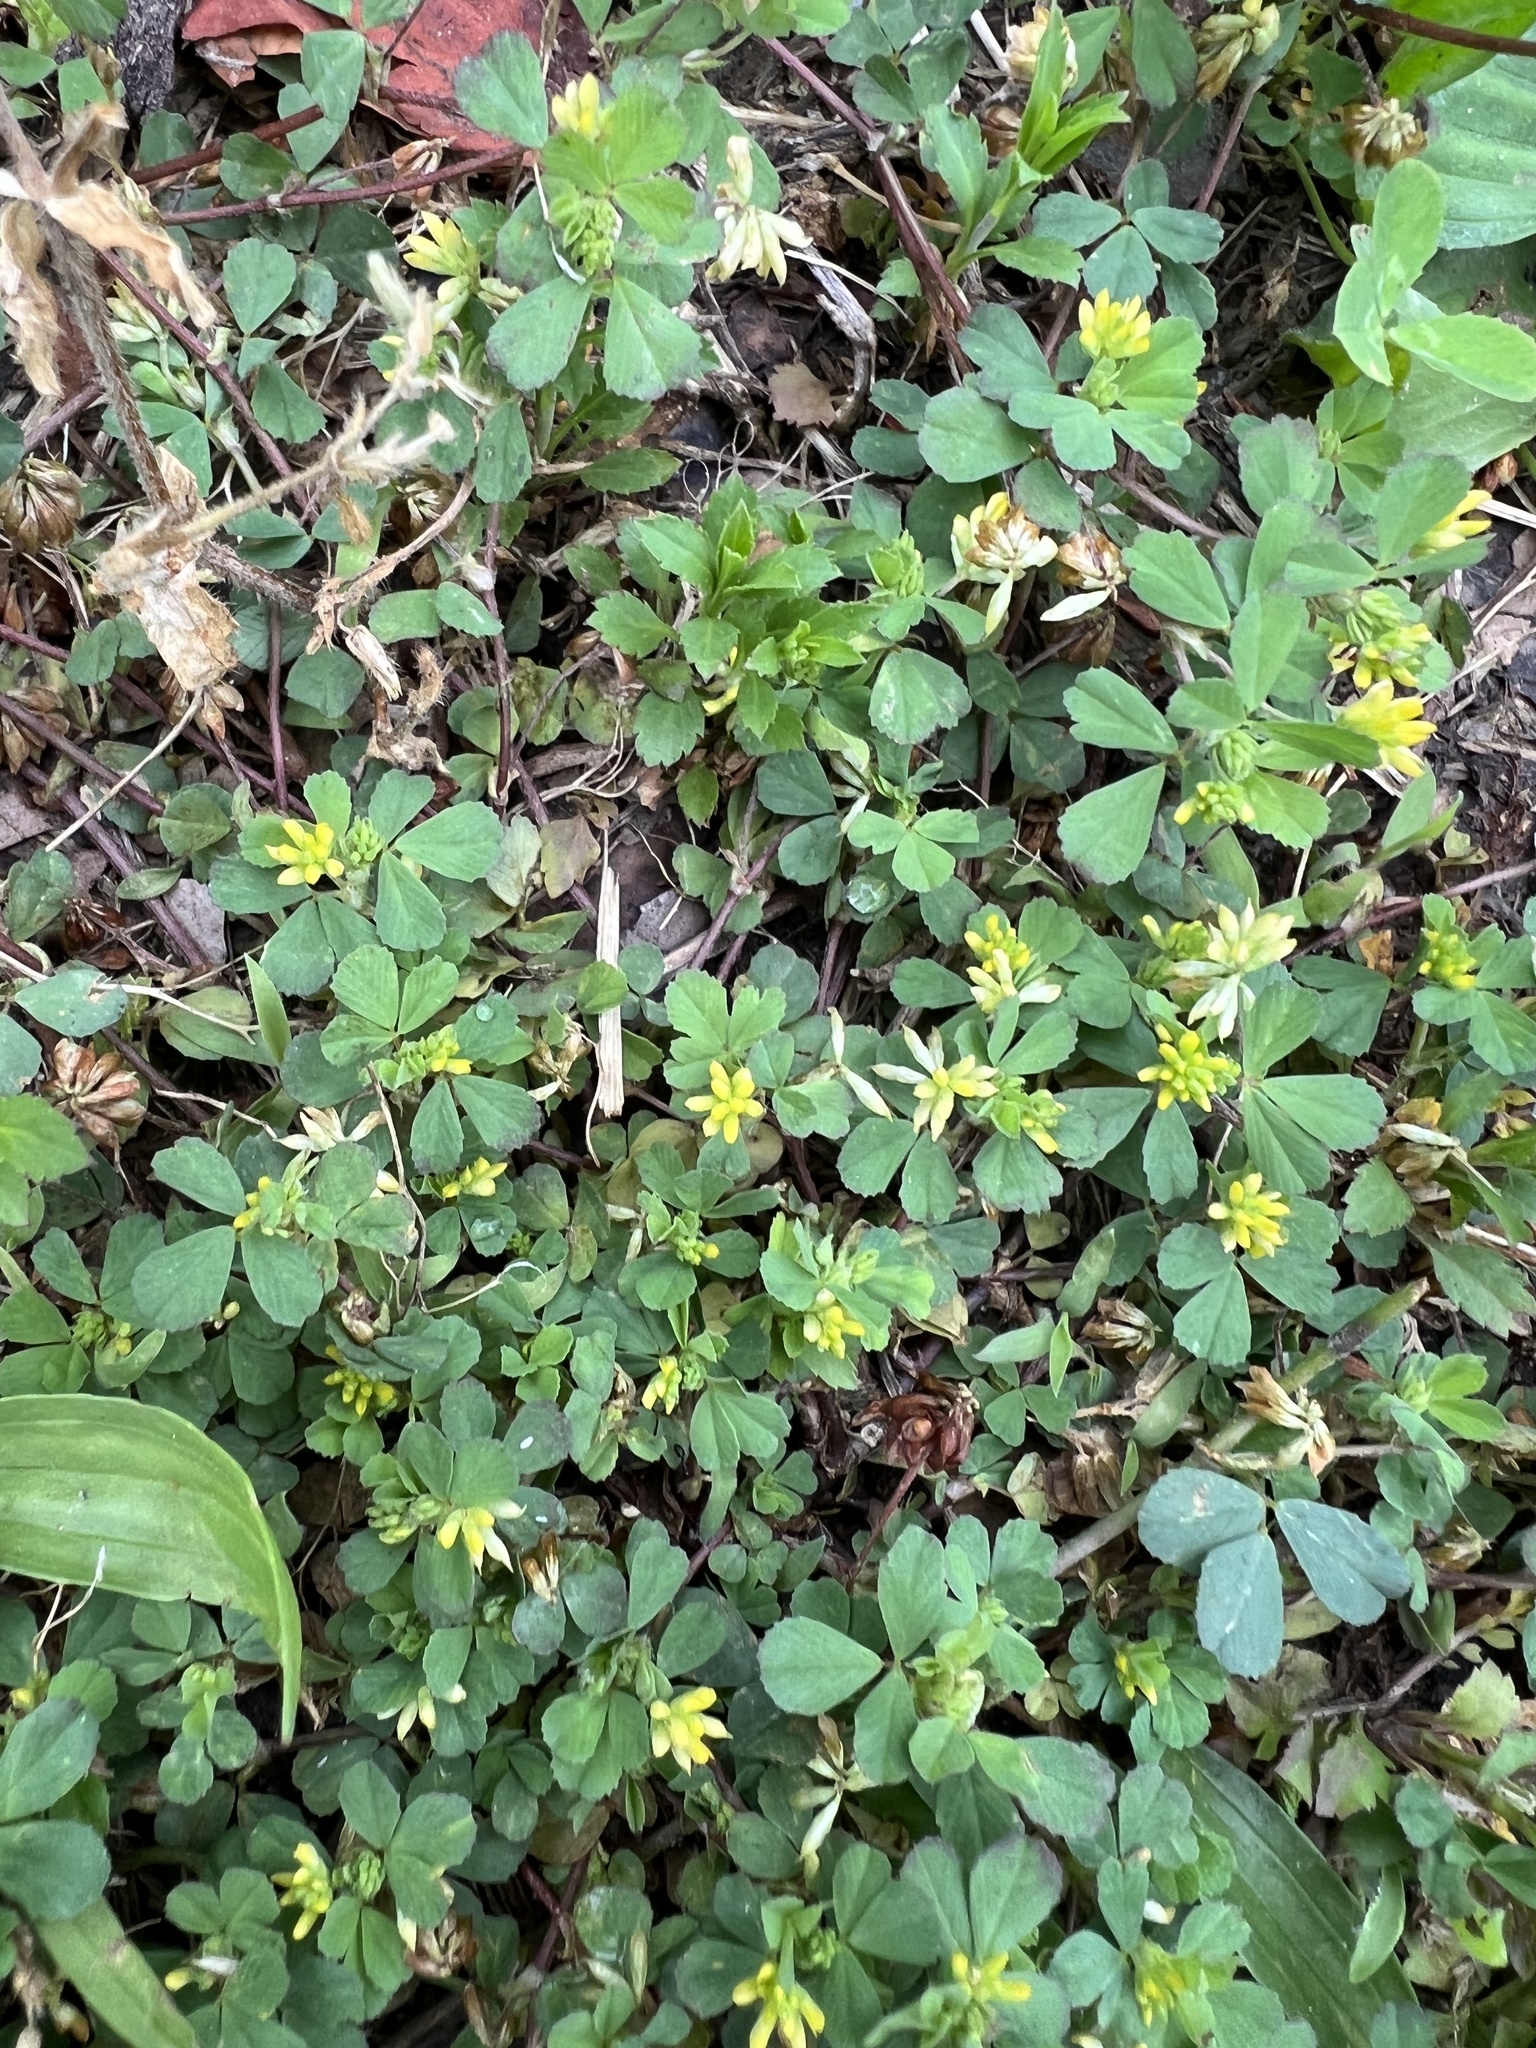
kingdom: Plantae
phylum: Tracheophyta
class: Magnoliopsida
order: Fabales
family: Fabaceae
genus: Trifolium
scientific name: Trifolium dubium
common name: Suckling clover
